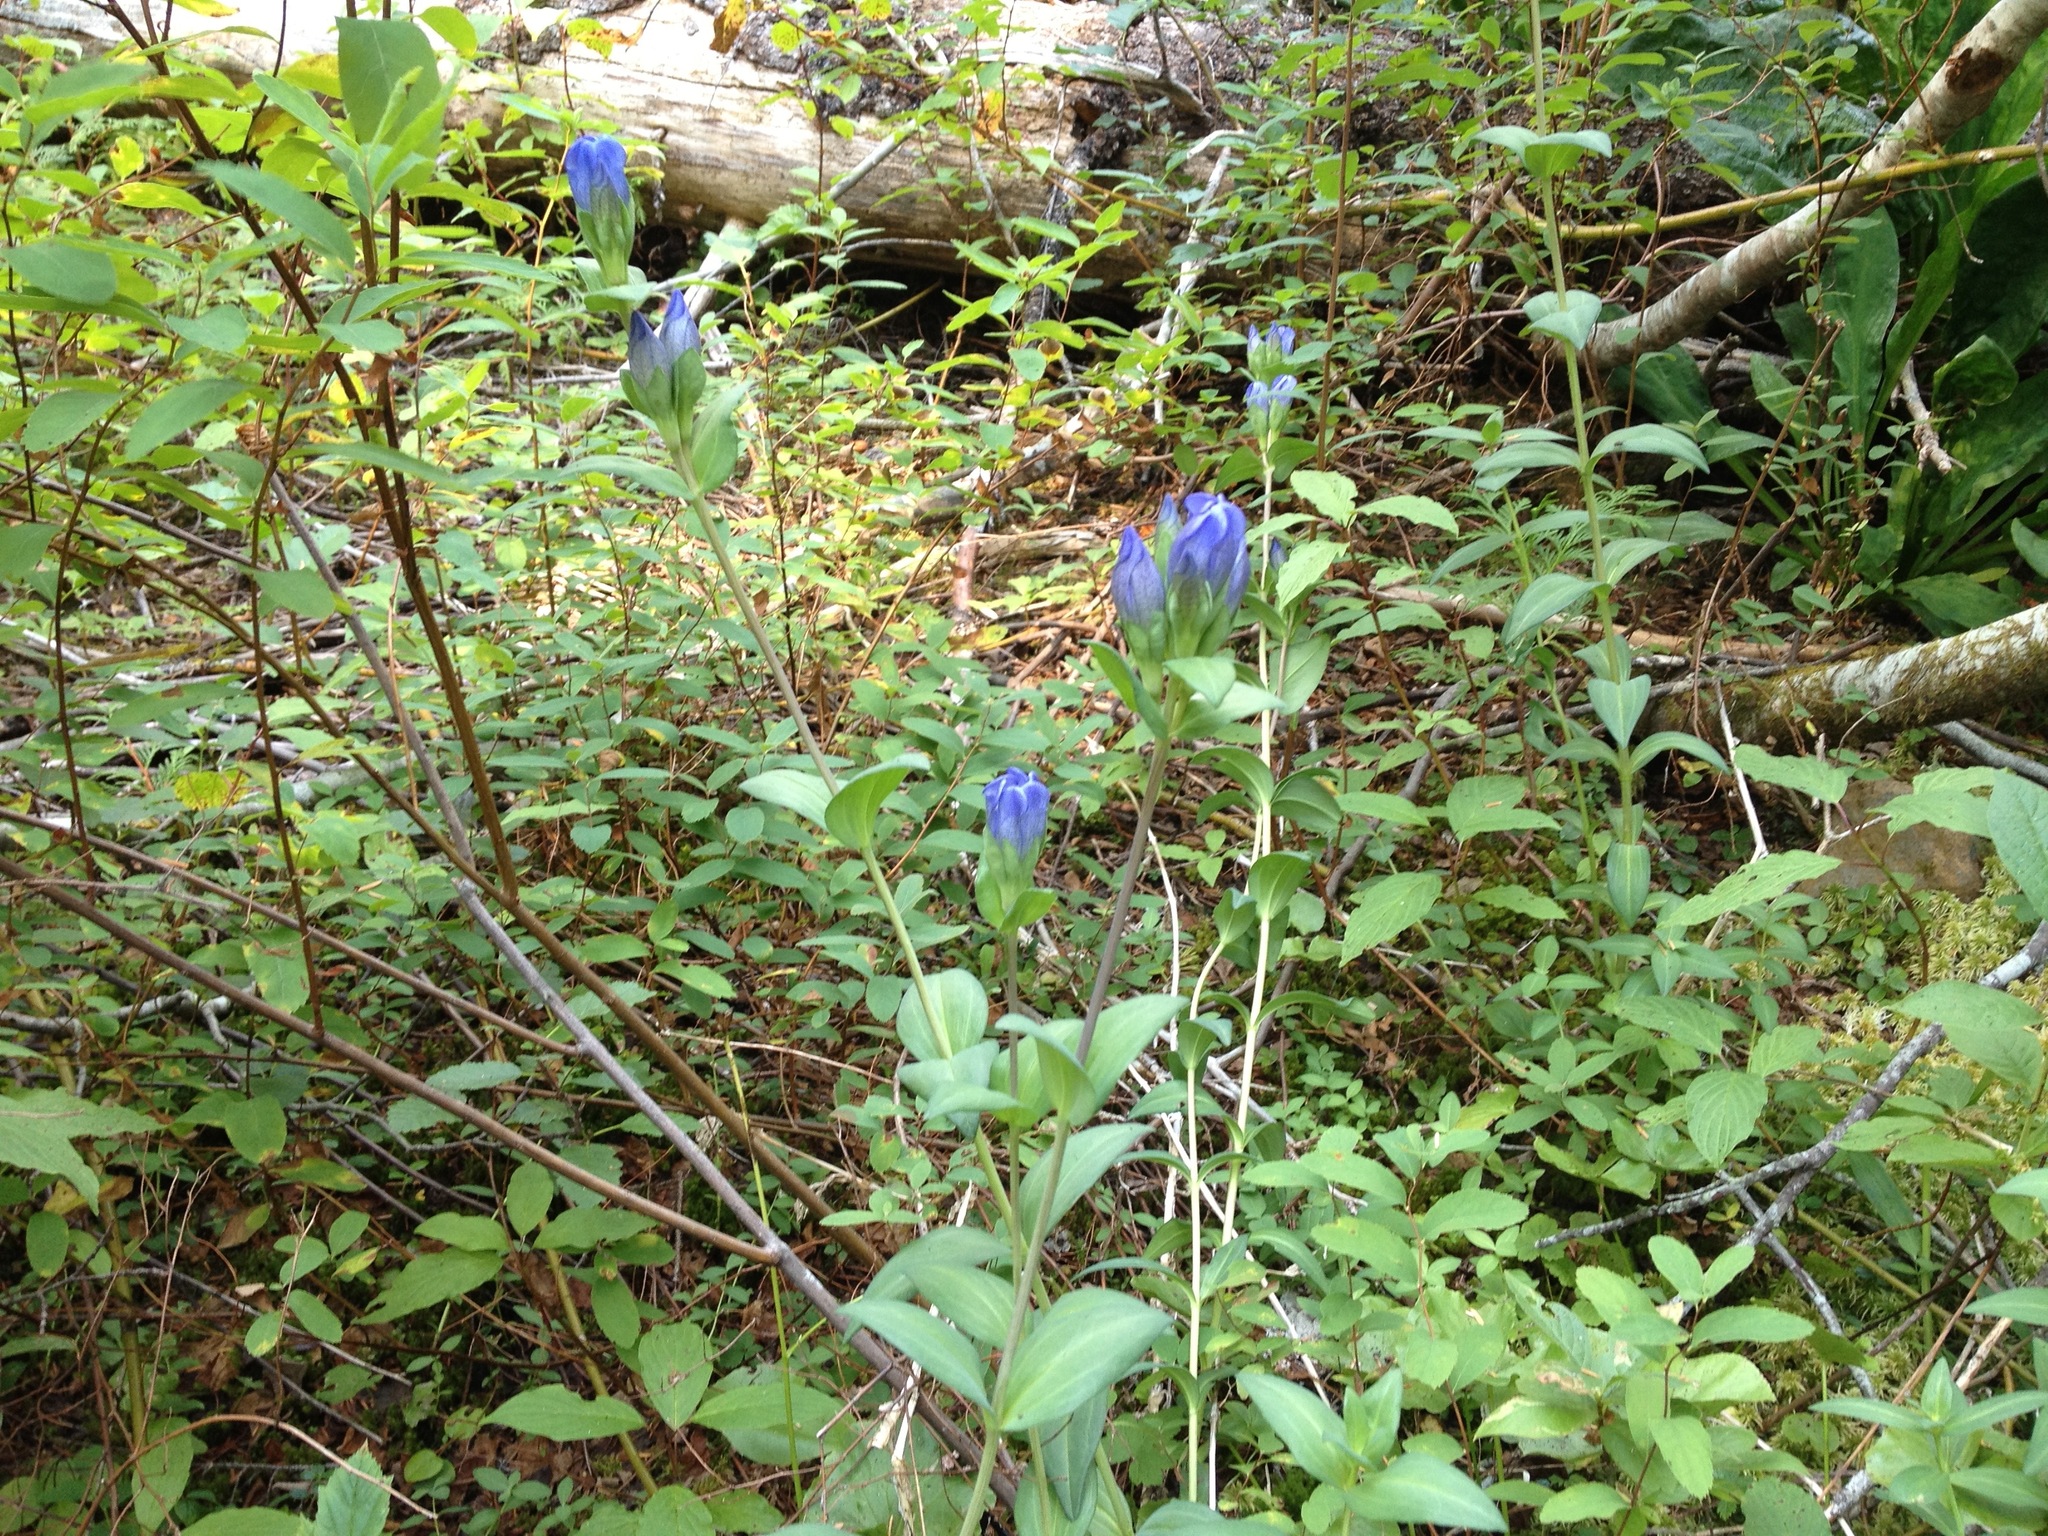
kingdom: Plantae
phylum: Tracheophyta
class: Magnoliopsida
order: Gentianales
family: Gentianaceae
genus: Gentiana
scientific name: Gentiana sceptrum
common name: Pacific gentian
